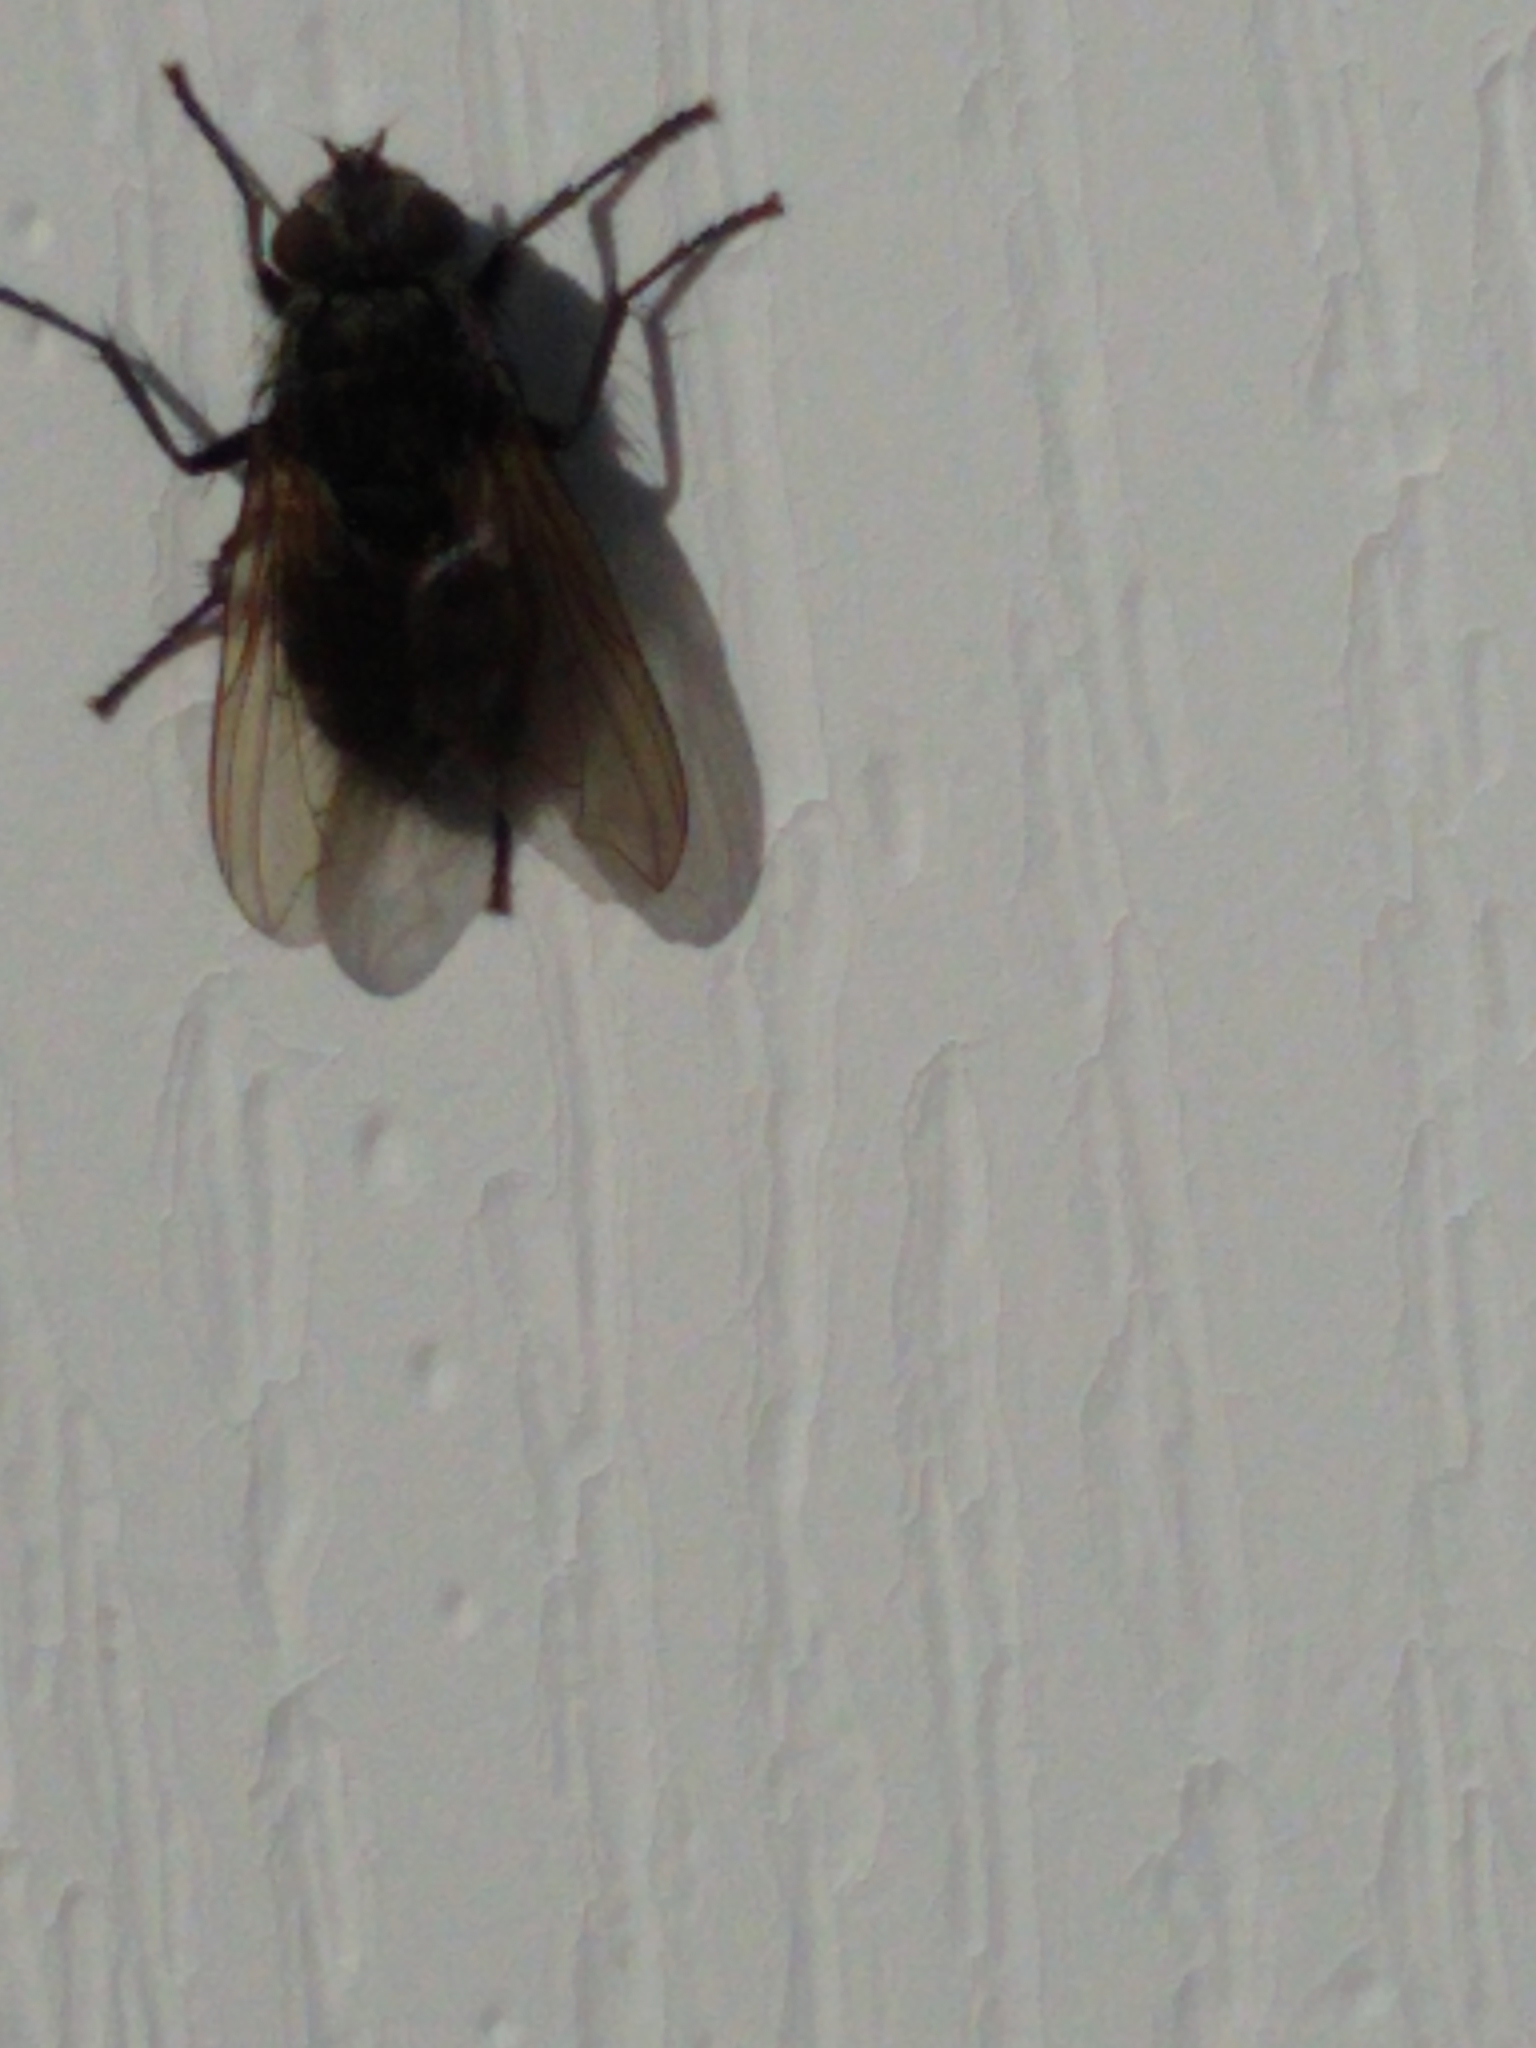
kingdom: Animalia
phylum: Arthropoda
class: Insecta
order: Diptera
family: Polleniidae
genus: Pollenia
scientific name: Pollenia vagabunda
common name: Vagabund cluster fly
